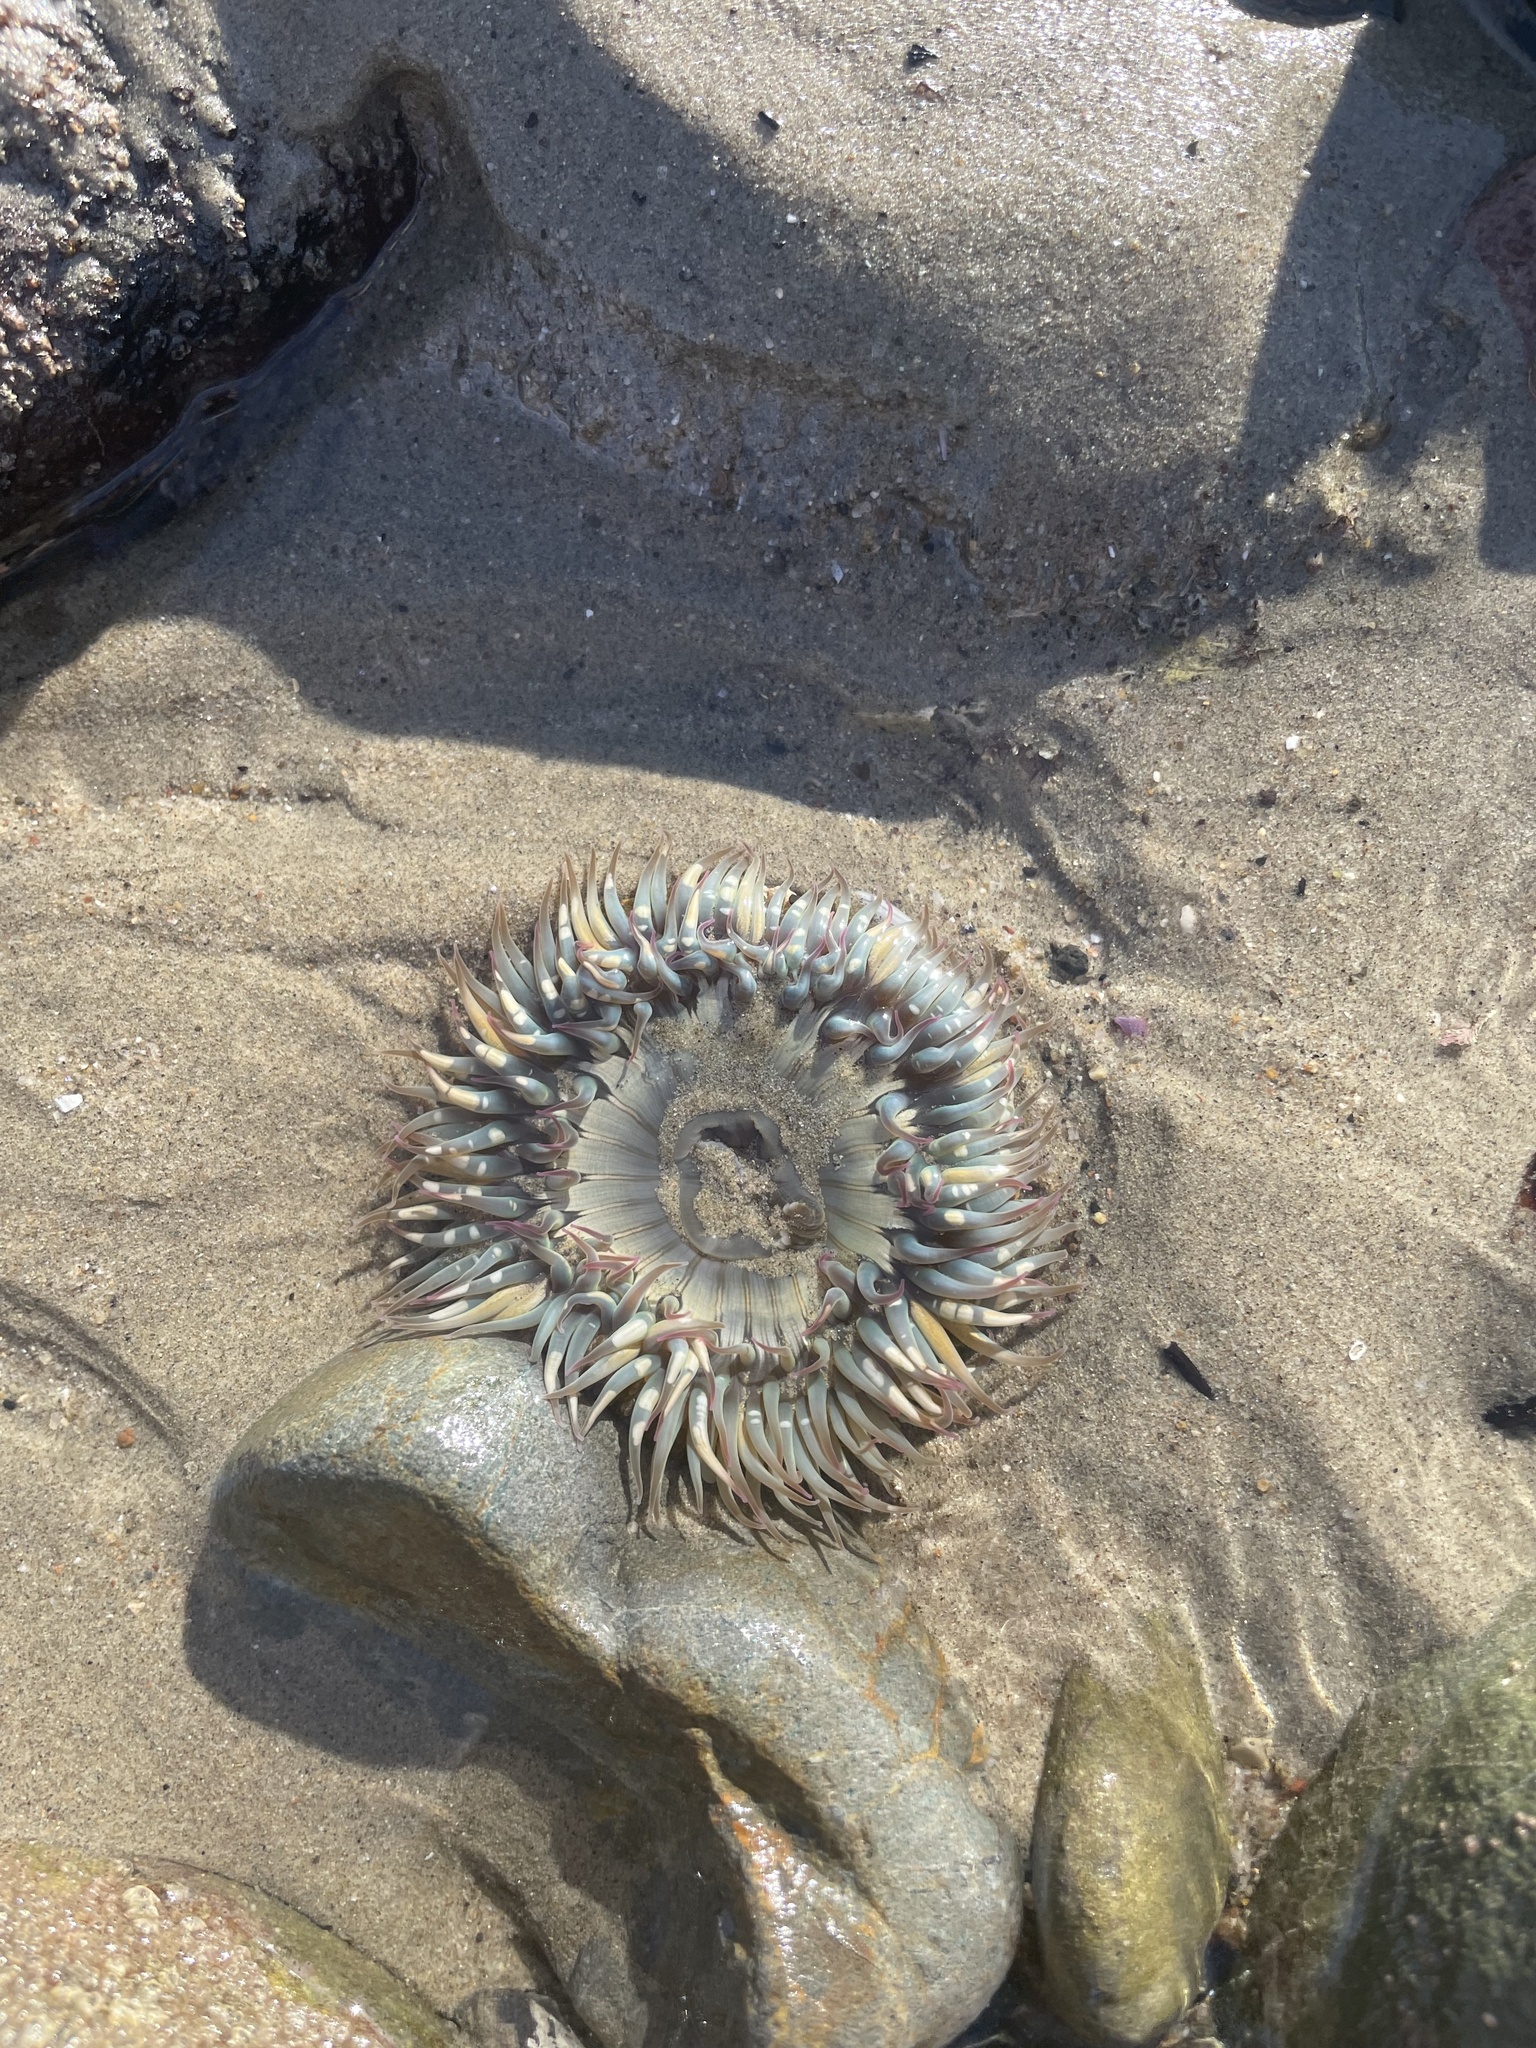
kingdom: Animalia
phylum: Cnidaria
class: Anthozoa
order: Actiniaria
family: Actiniidae
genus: Anthopleura
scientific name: Anthopleura sola
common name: Sun anemone
